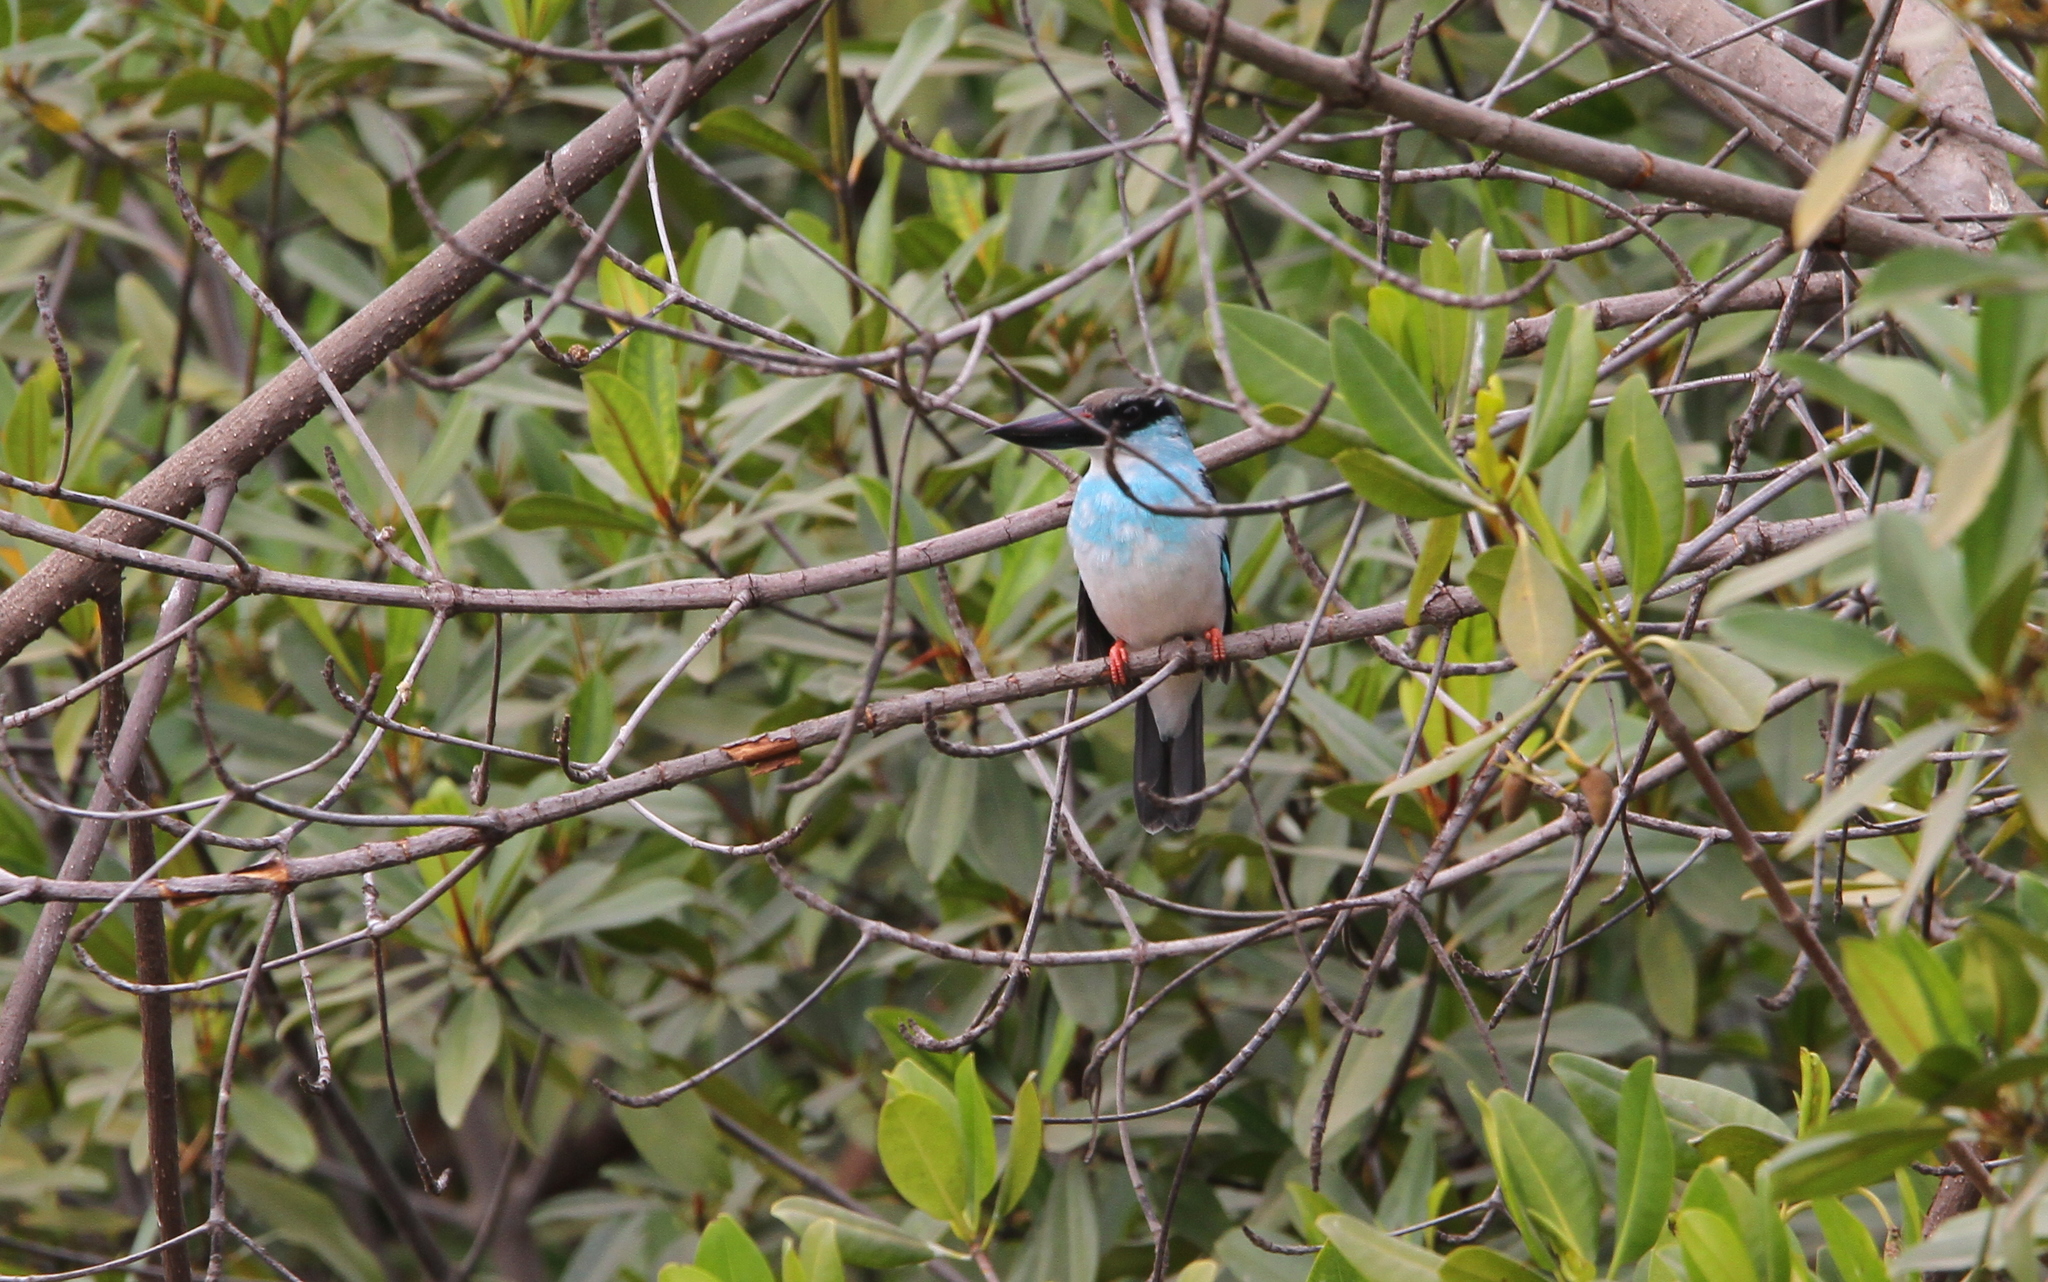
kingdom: Animalia
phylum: Chordata
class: Aves
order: Coraciiformes
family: Alcedinidae
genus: Halcyon
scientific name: Halcyon malimbica
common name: Blue-breasted kingfisher
